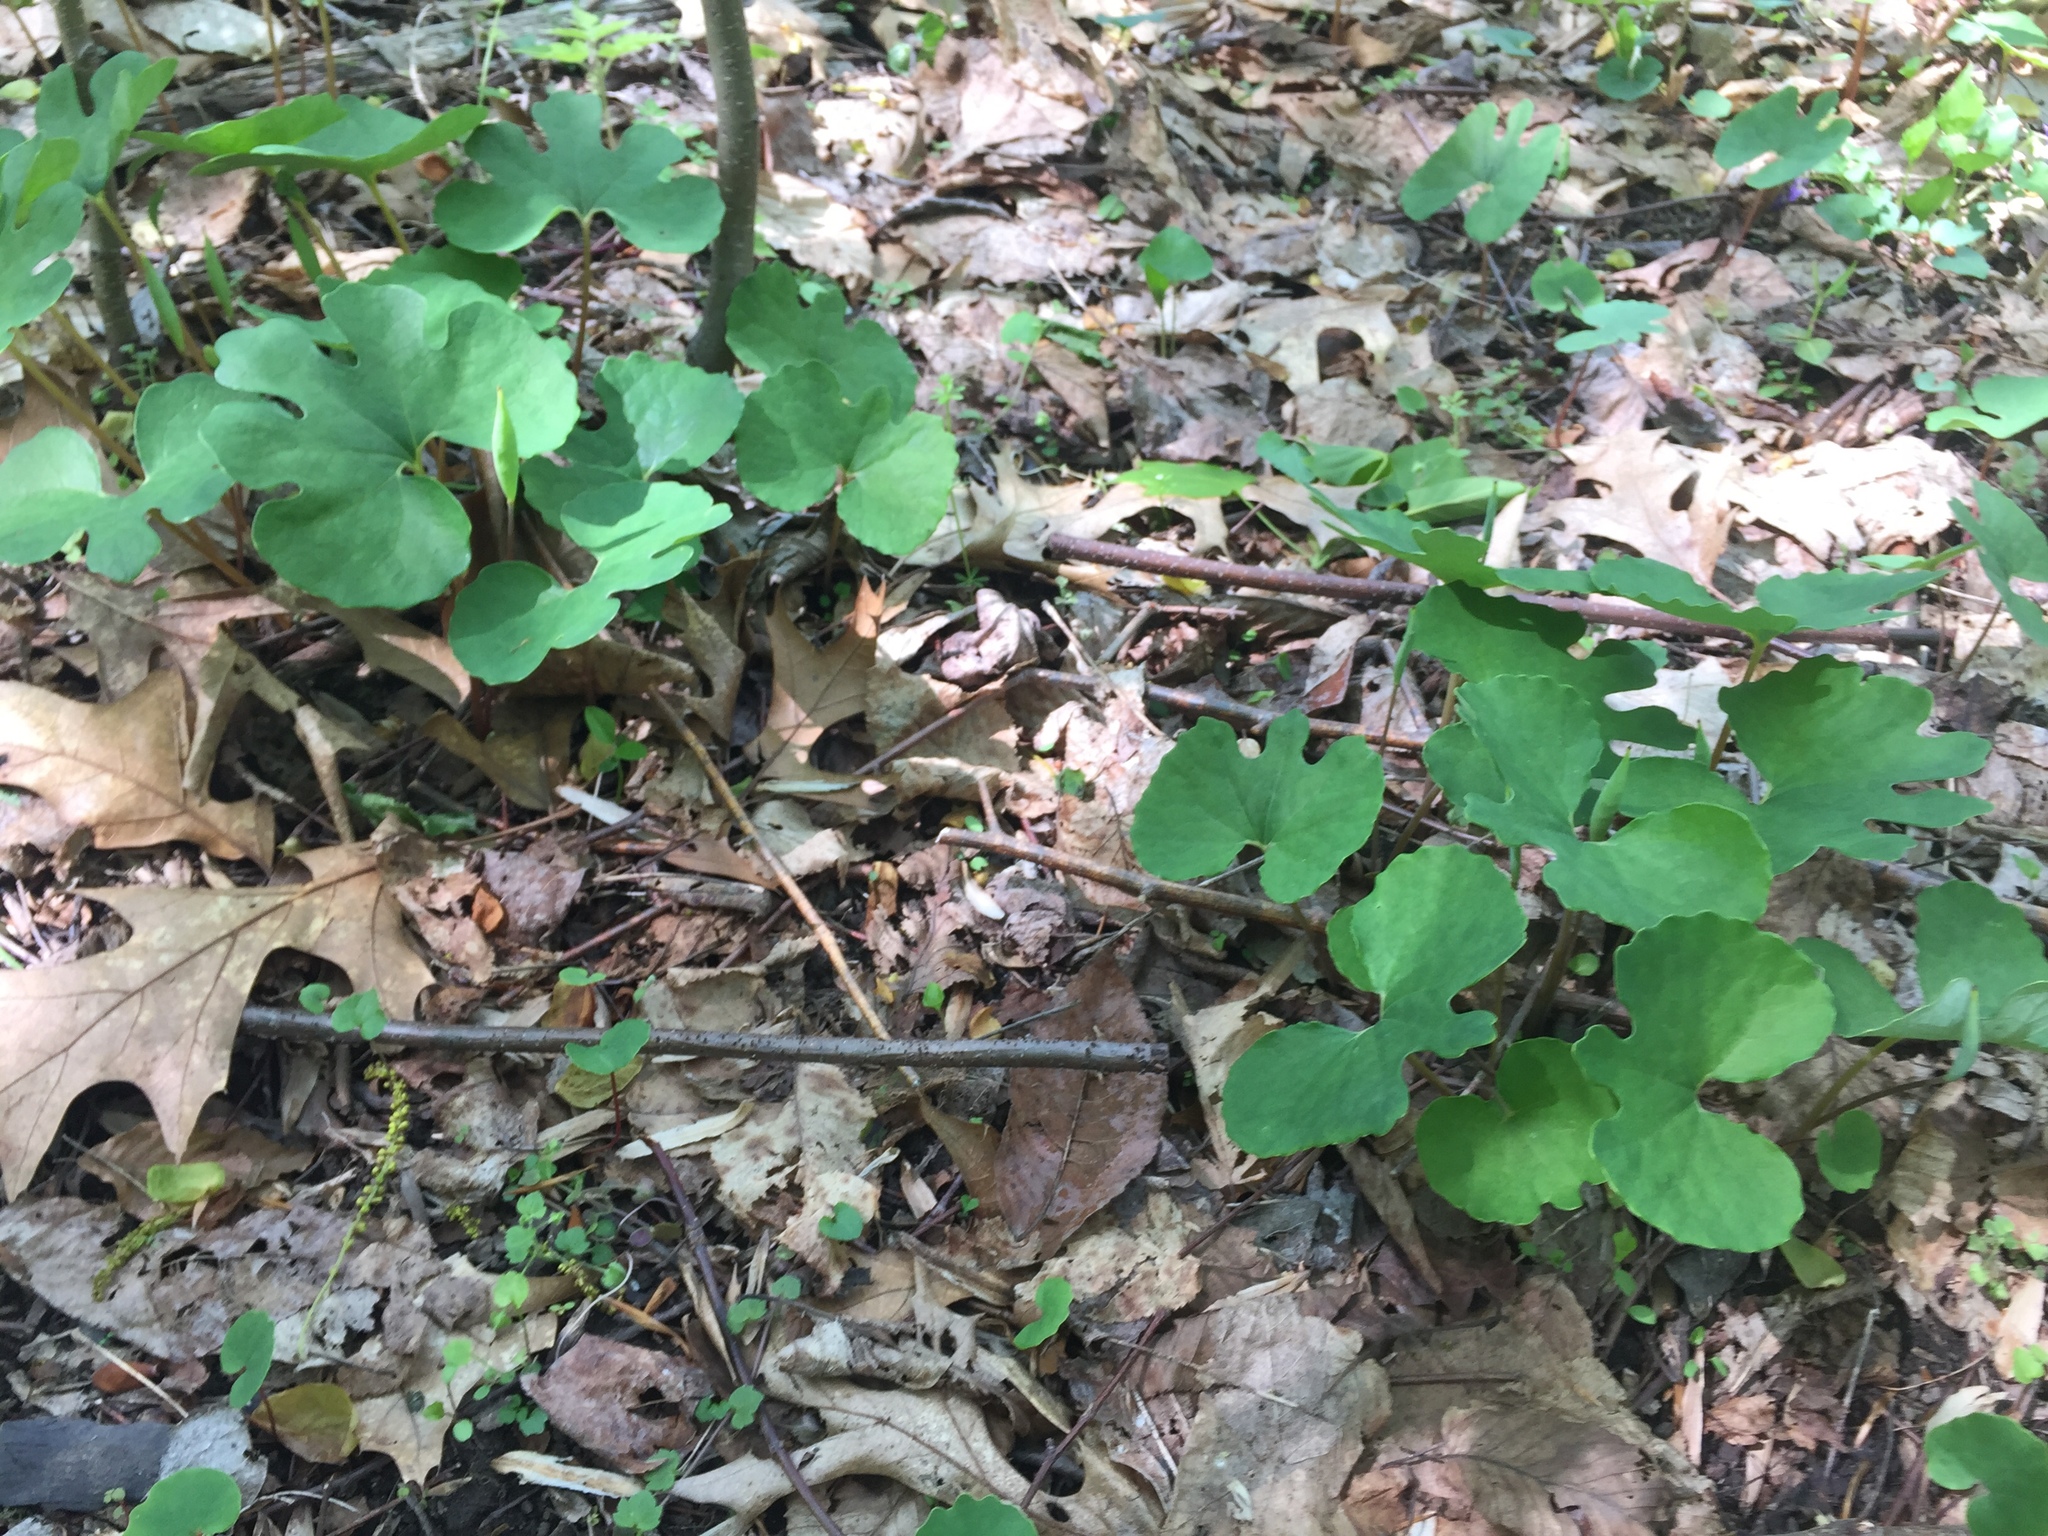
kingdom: Plantae
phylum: Tracheophyta
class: Magnoliopsida
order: Ranunculales
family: Papaveraceae
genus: Sanguinaria
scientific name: Sanguinaria canadensis
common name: Bloodroot
